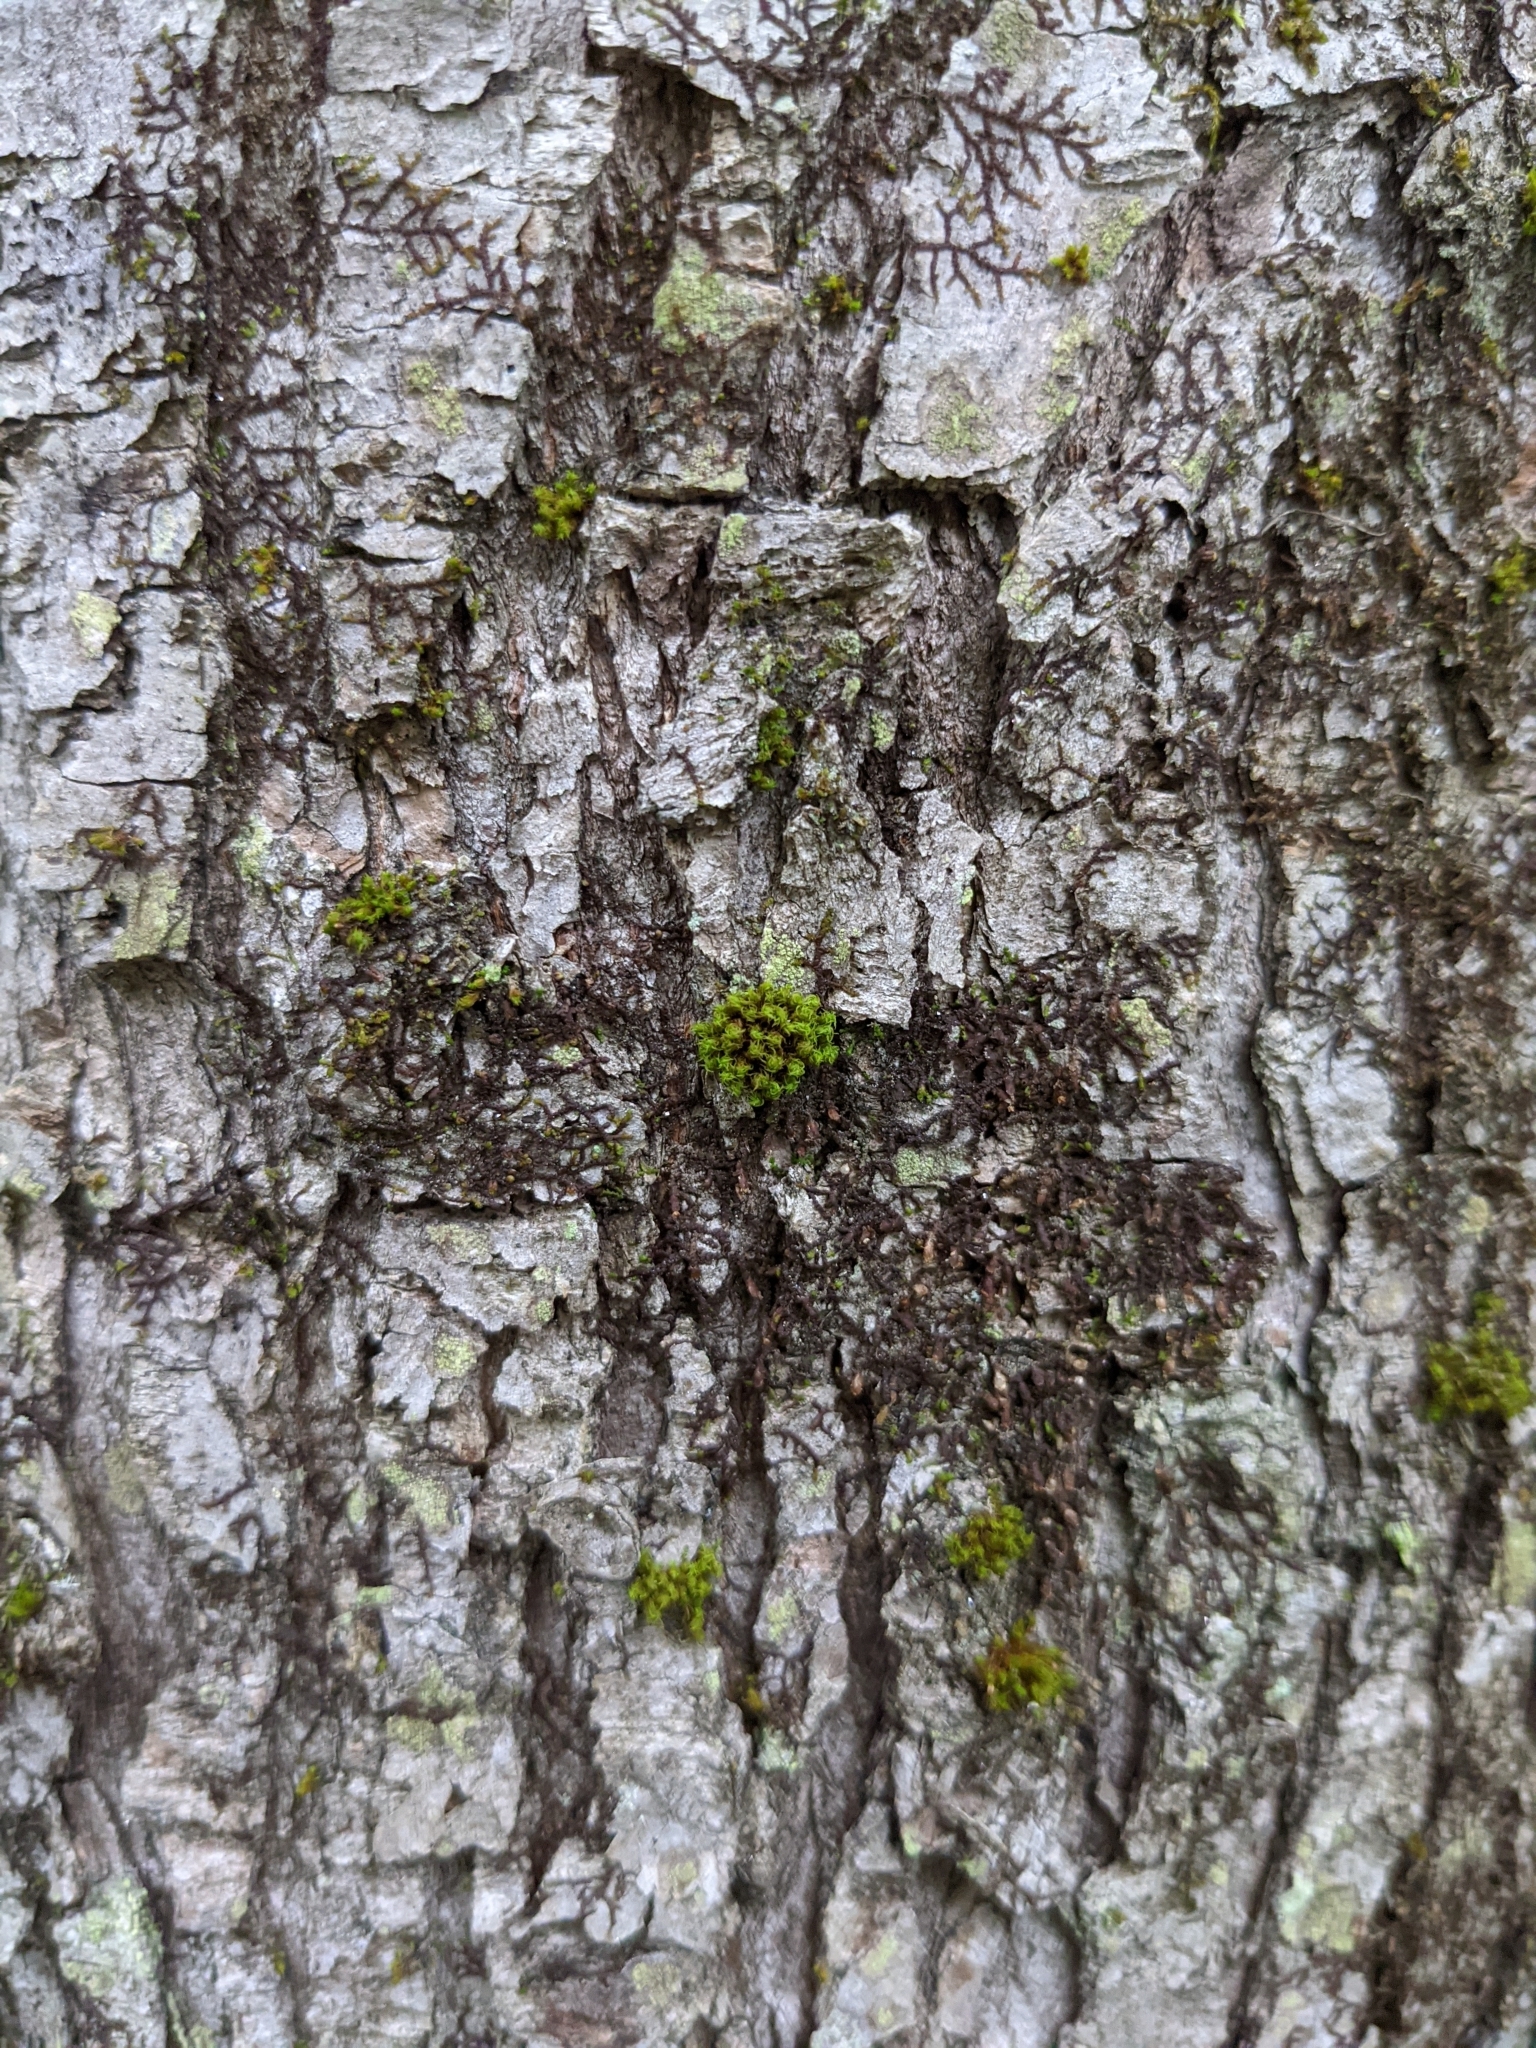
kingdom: Plantae
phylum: Bryophyta
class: Bryopsida
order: Orthotrichales
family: Orthotrichaceae
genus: Ulota
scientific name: Ulota crispa
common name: Crisped pincushion moss
